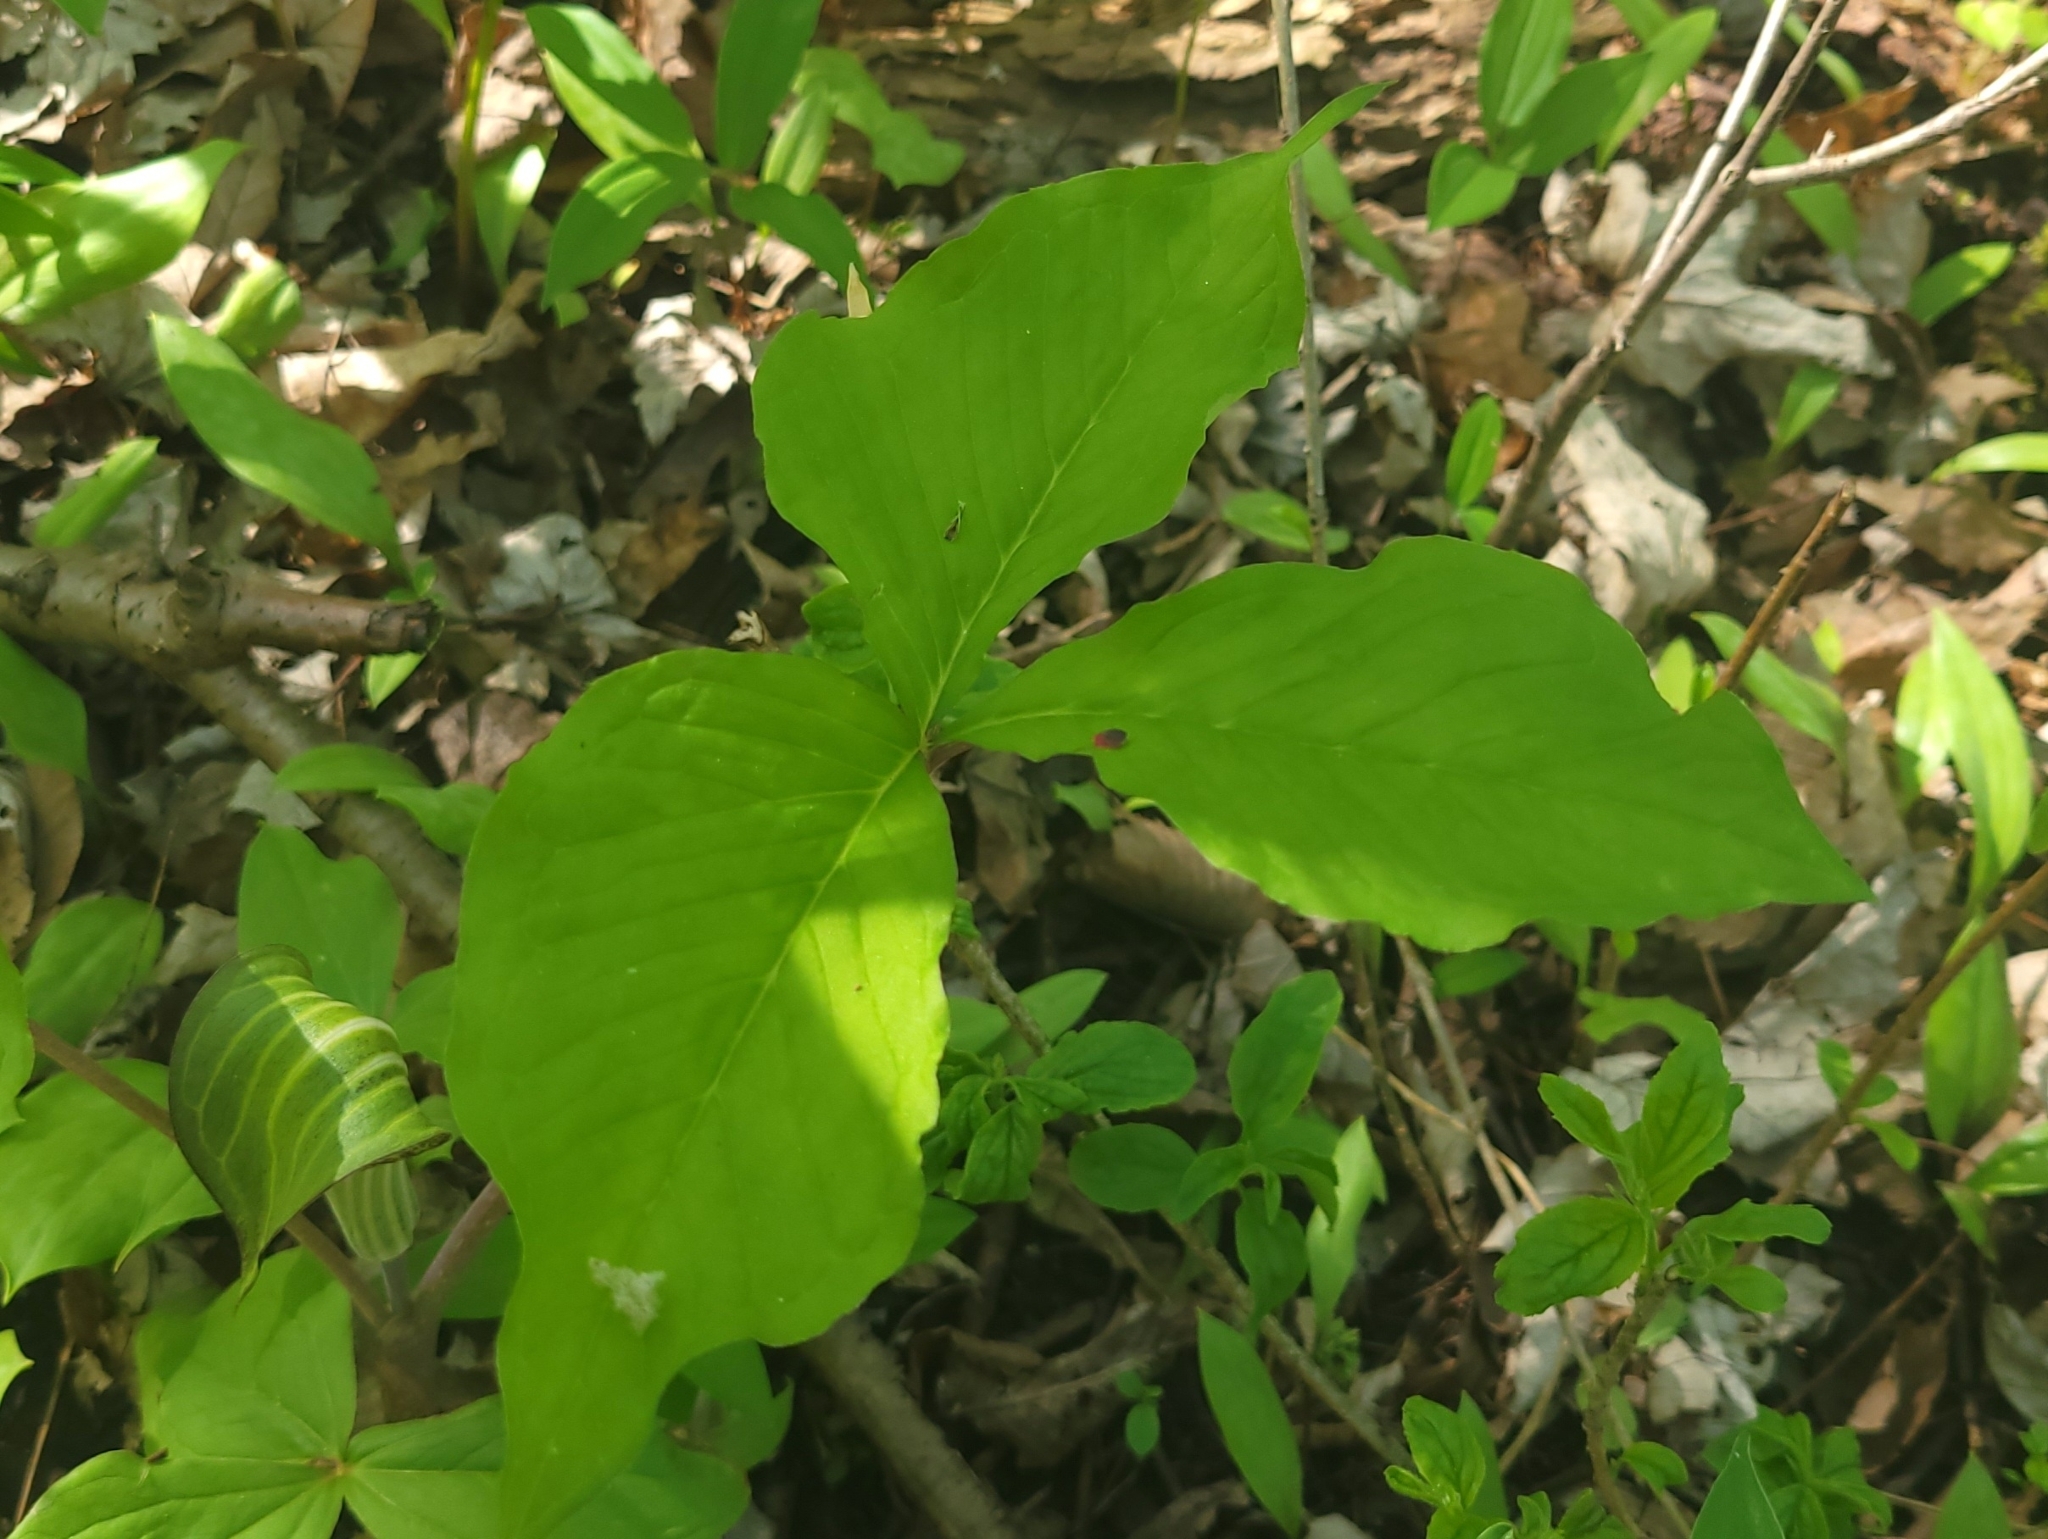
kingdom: Plantae
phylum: Tracheophyta
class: Liliopsida
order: Alismatales
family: Araceae
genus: Arisaema
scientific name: Arisaema triphyllum
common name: Jack-in-the-pulpit
